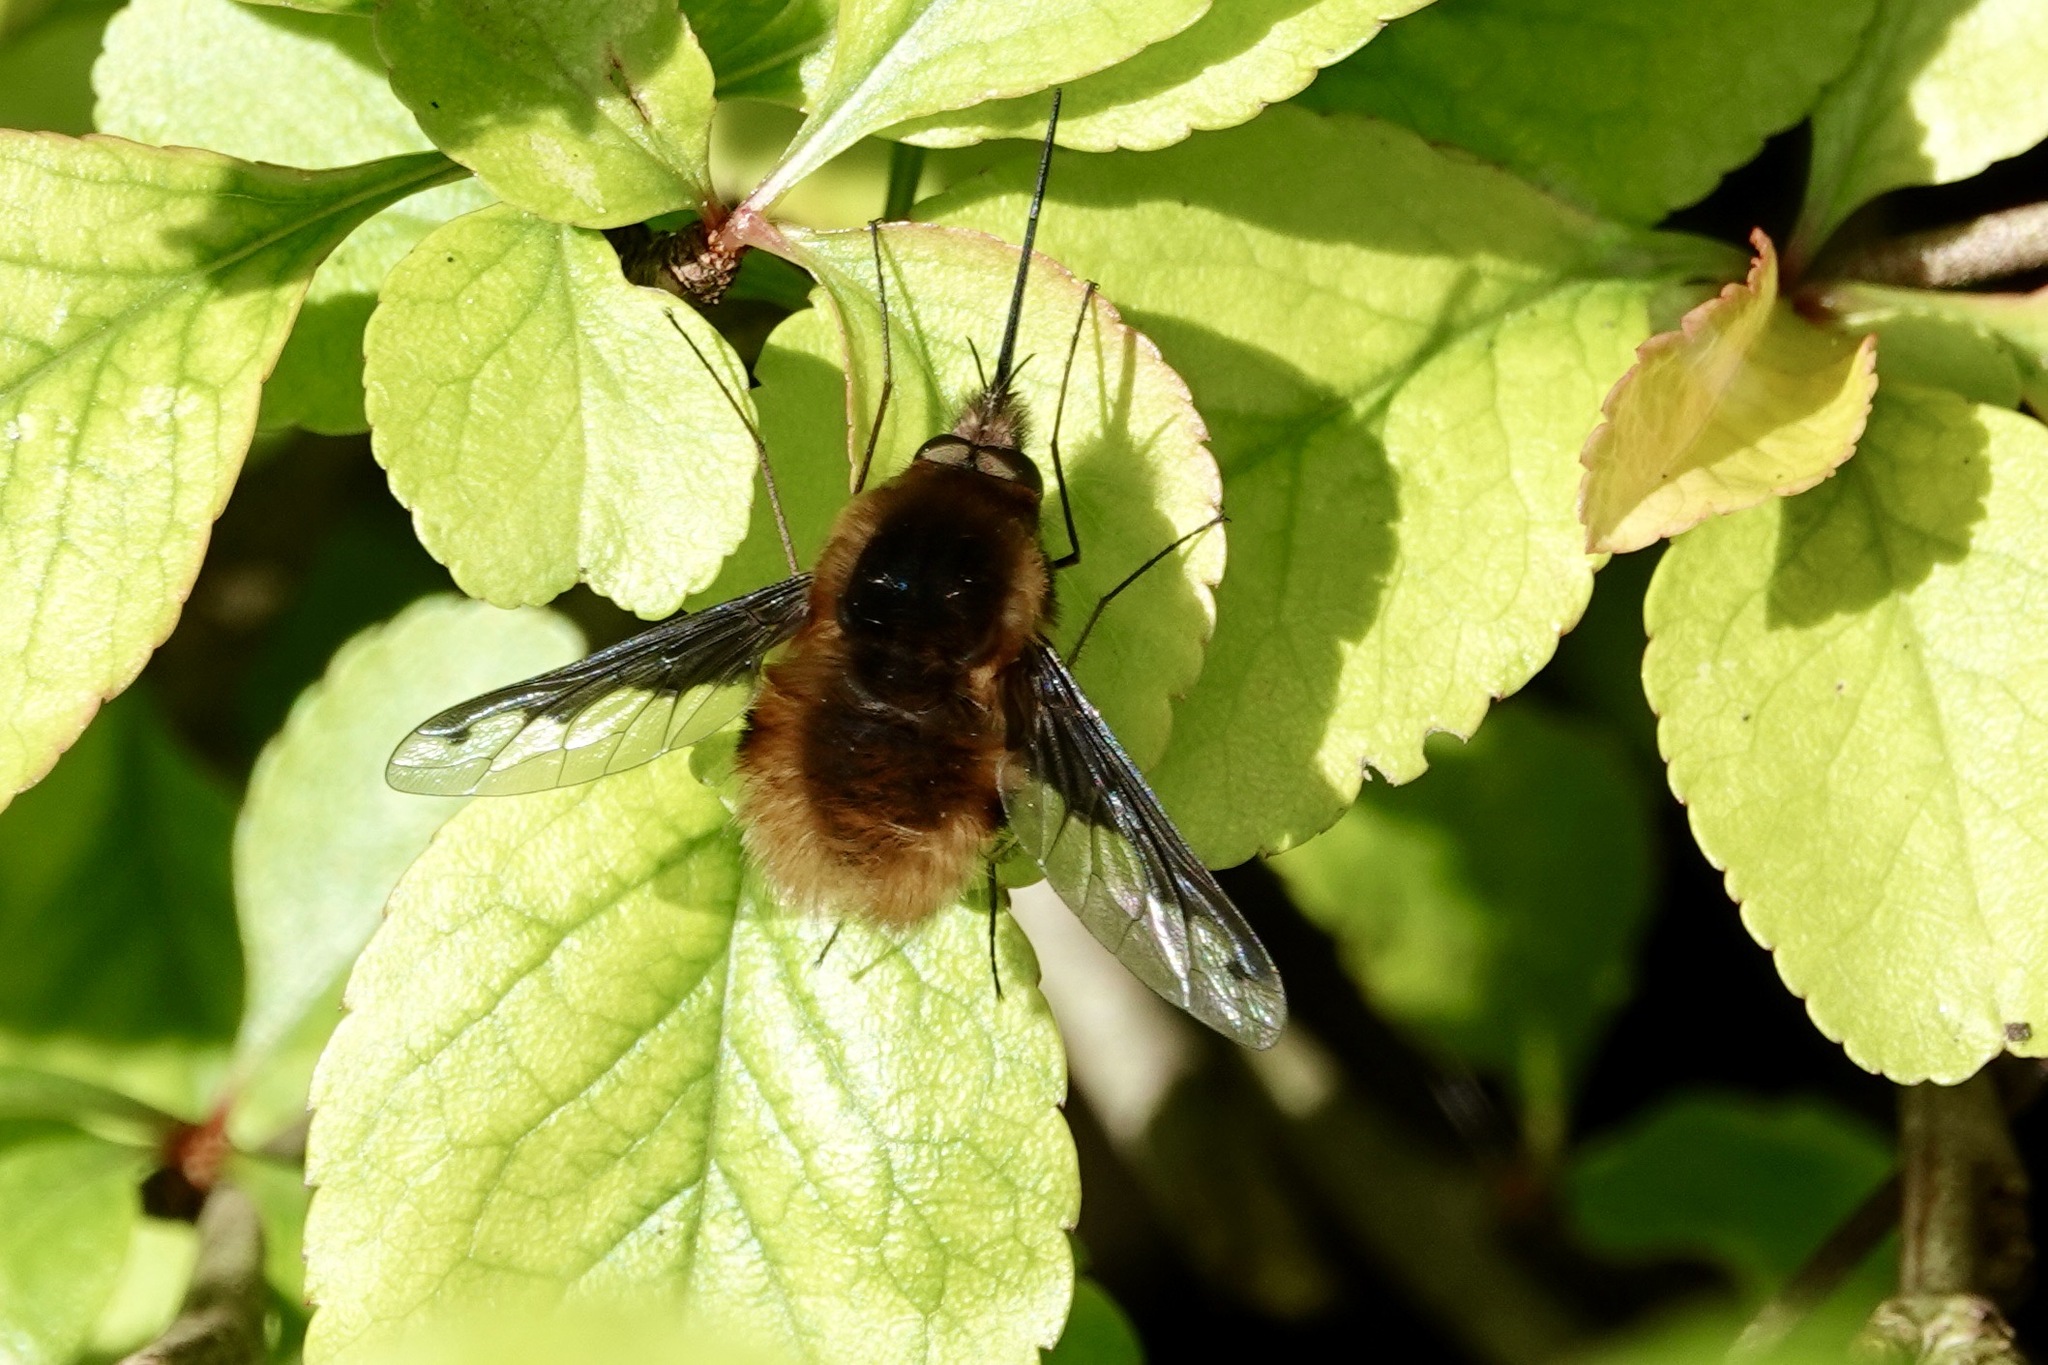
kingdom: Animalia
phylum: Arthropoda
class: Insecta
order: Diptera
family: Bombyliidae
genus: Bombylius
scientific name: Bombylius major
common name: Bee fly
